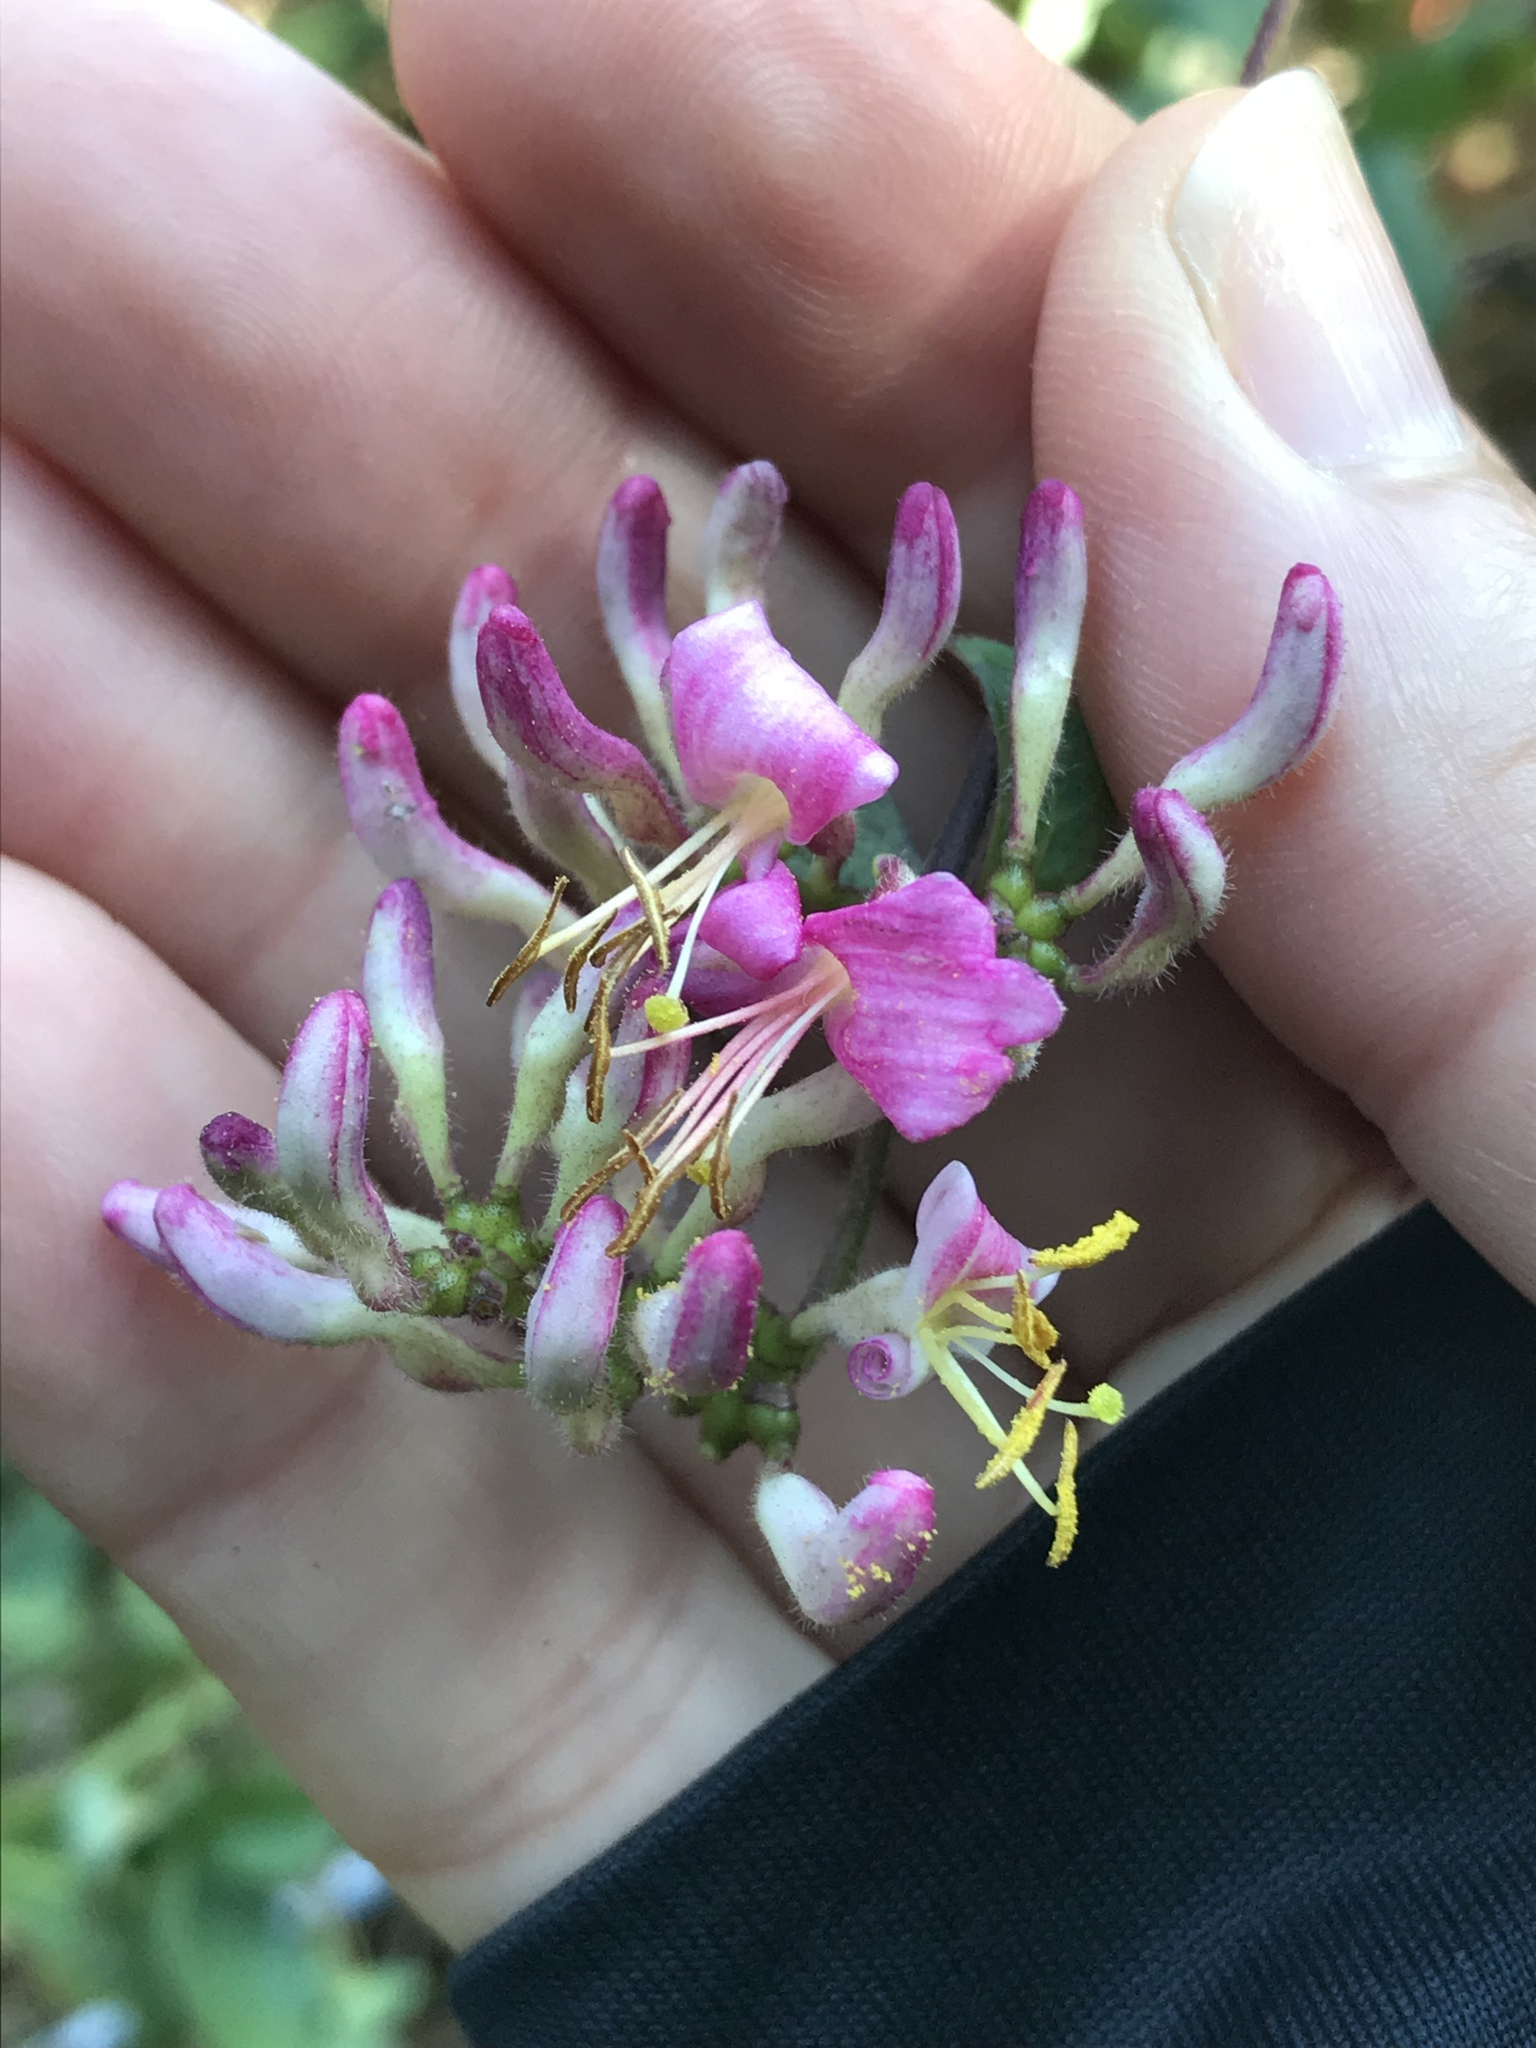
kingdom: Plantae
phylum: Tracheophyta
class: Magnoliopsida
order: Dipsacales
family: Caprifoliaceae
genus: Lonicera
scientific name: Lonicera hispidula
